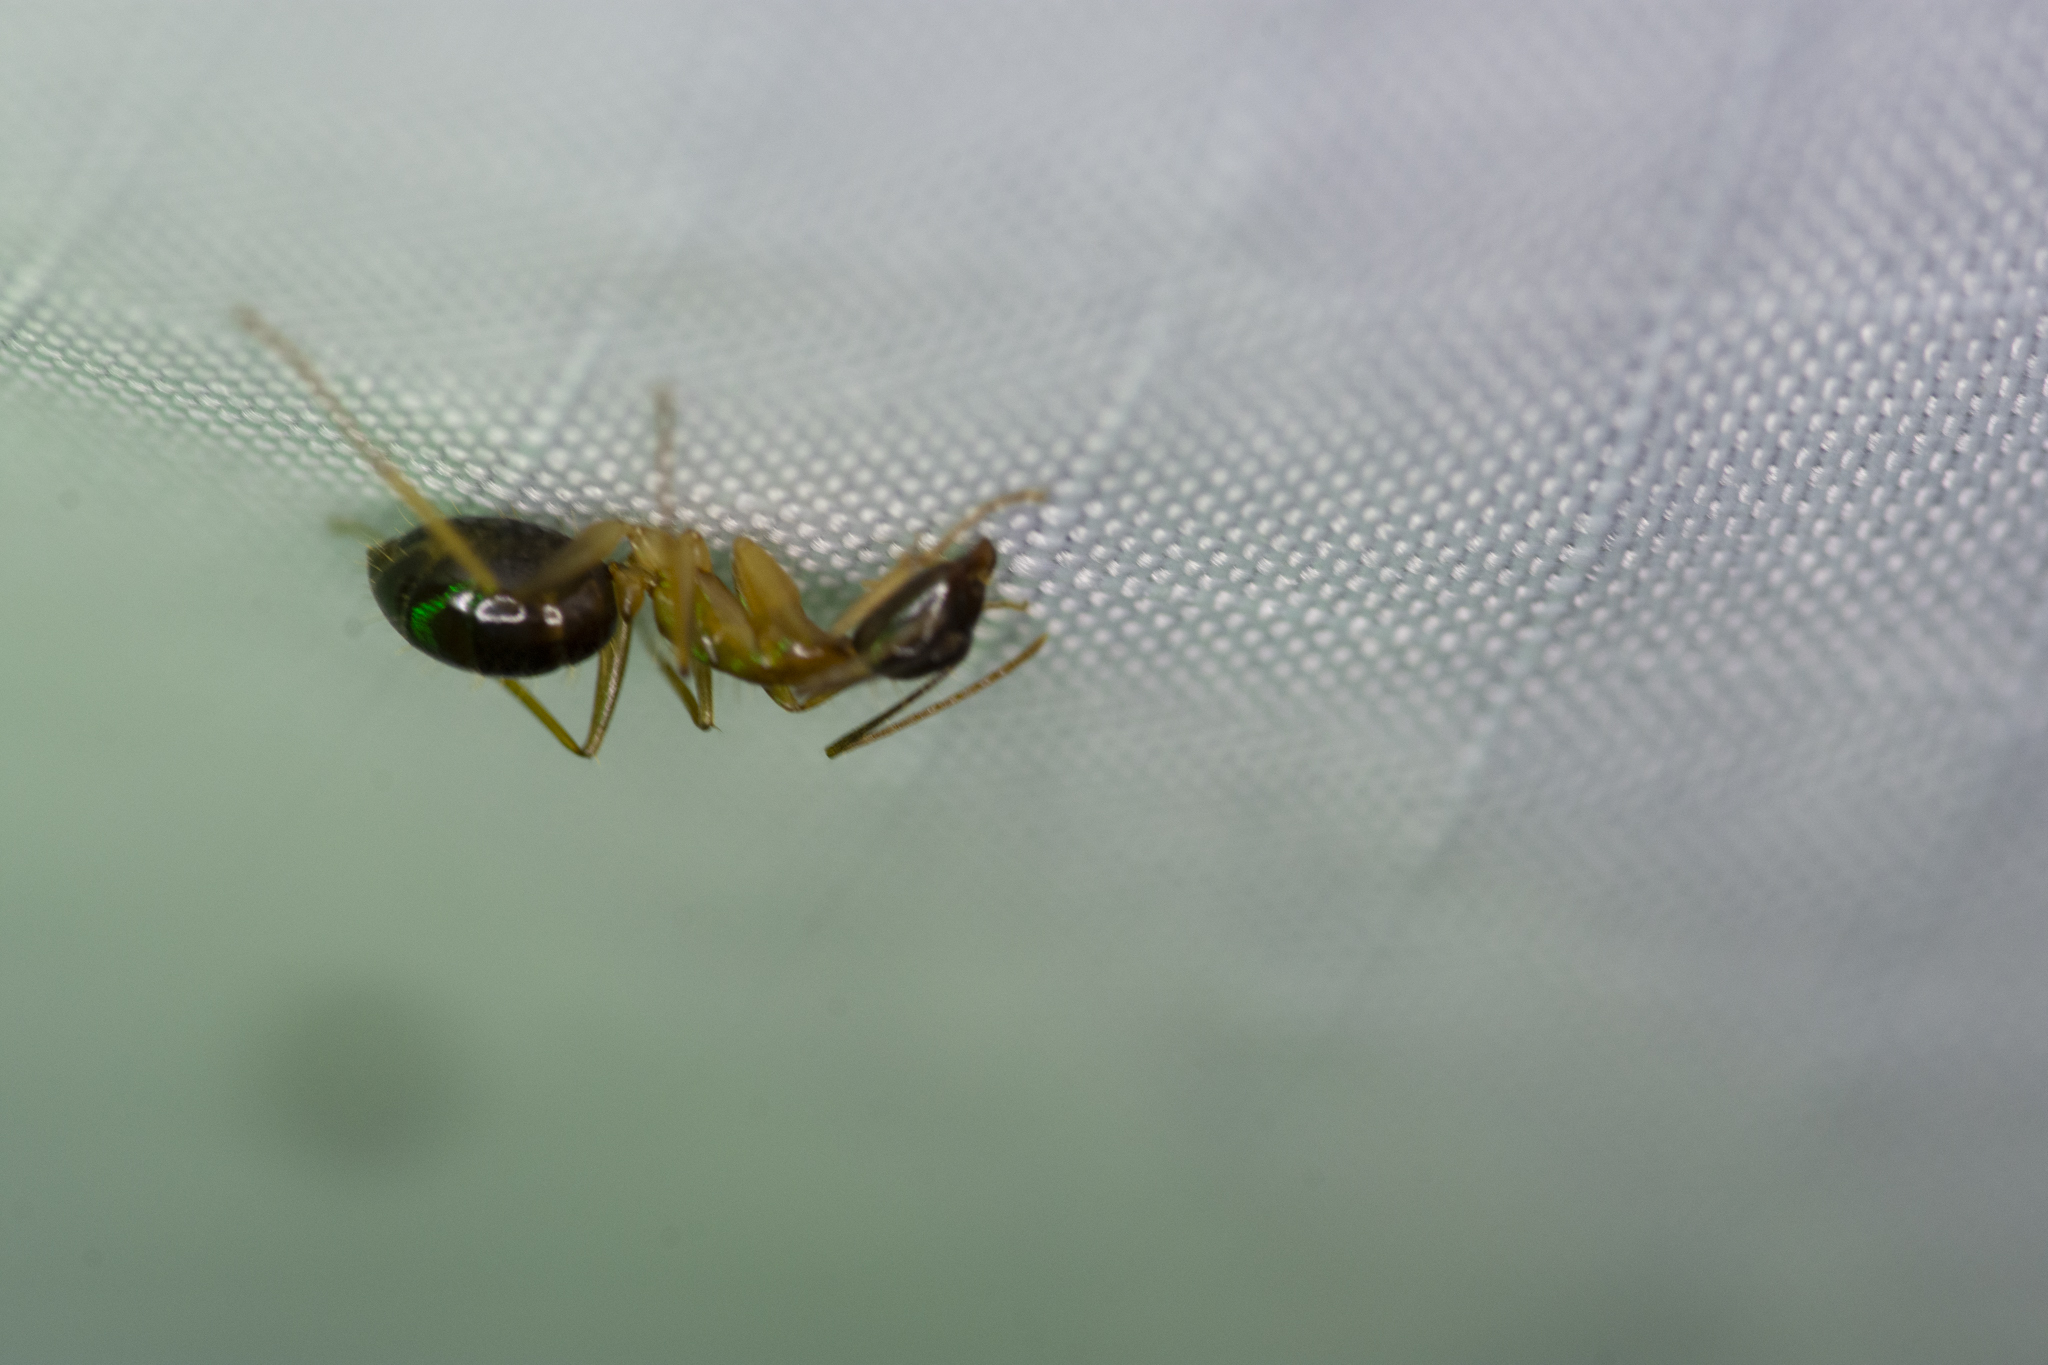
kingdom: Animalia
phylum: Arthropoda
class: Insecta
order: Hymenoptera
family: Formicidae
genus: Camponotus
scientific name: Camponotus kubaryi
